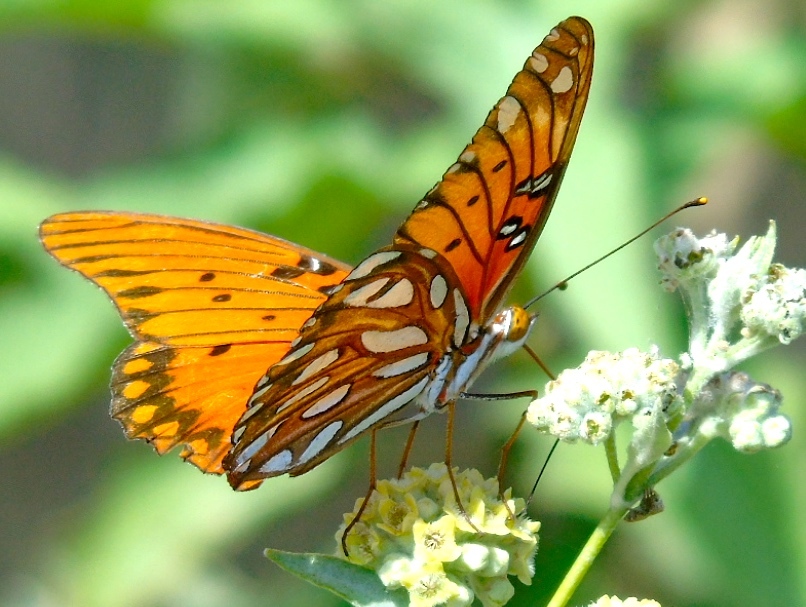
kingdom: Animalia
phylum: Arthropoda
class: Insecta
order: Lepidoptera
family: Nymphalidae
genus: Dione
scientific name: Dione vanillae
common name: Gulf fritillary
